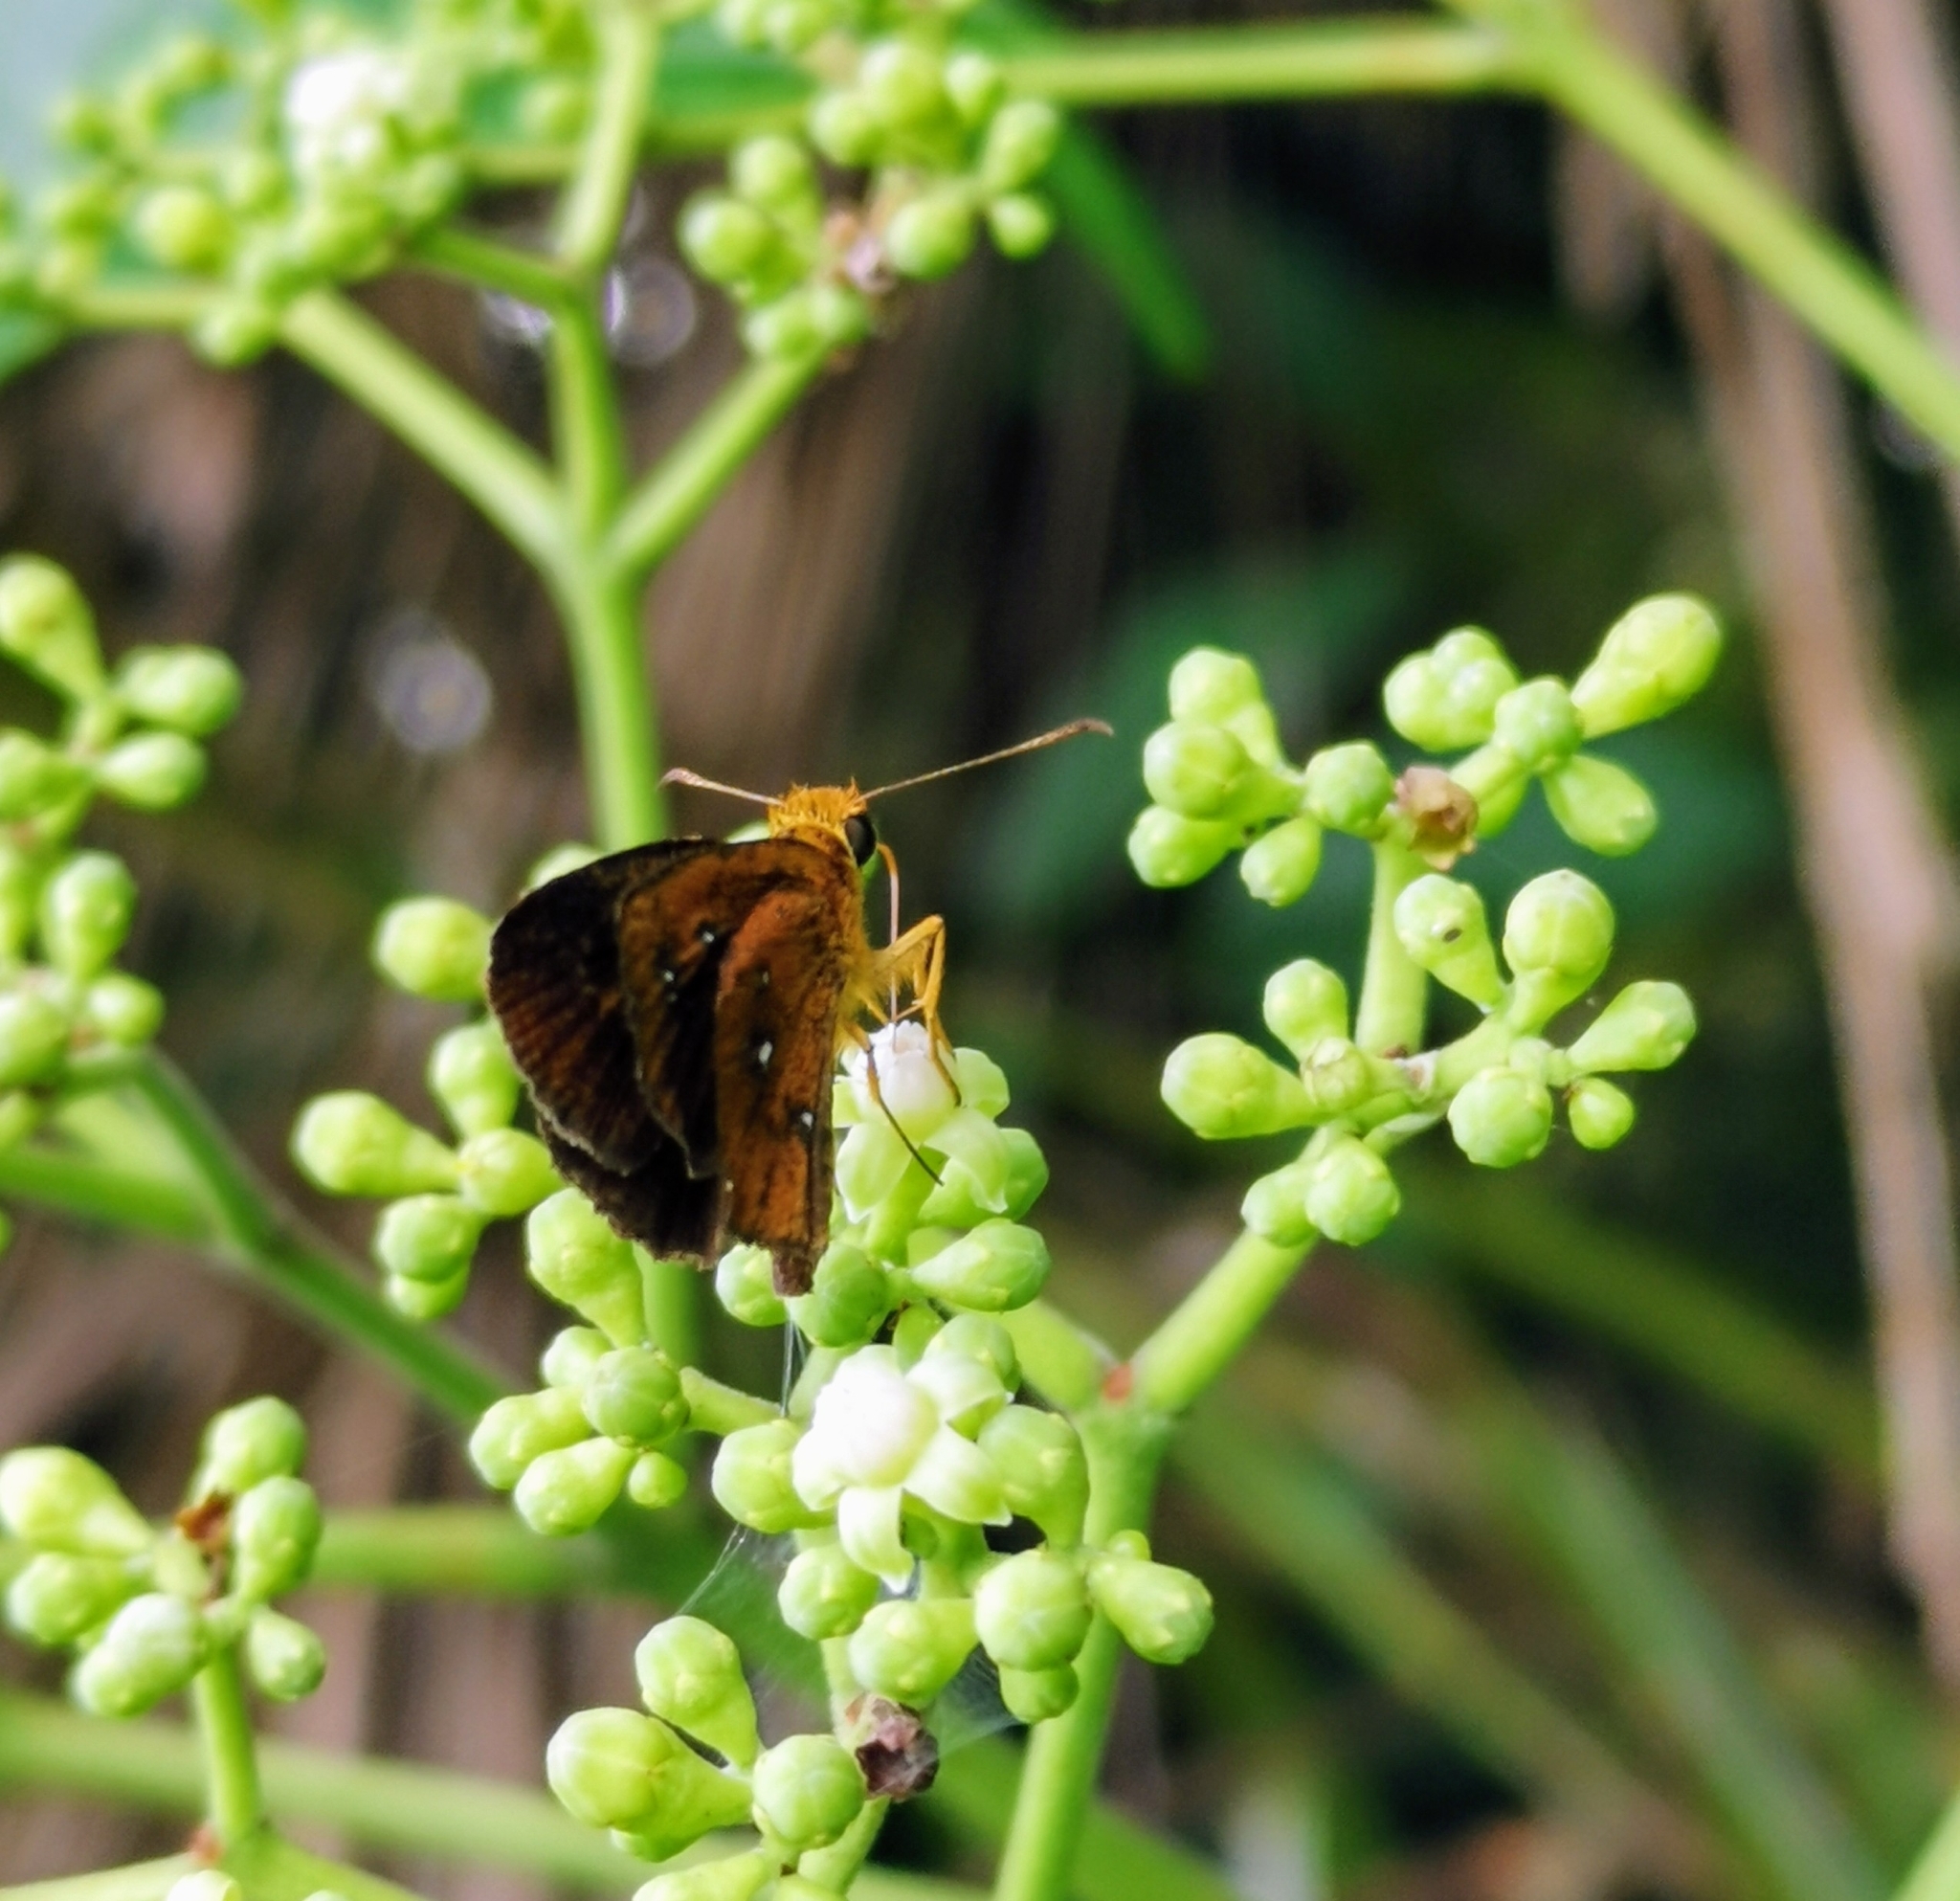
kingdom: Animalia
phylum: Arthropoda
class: Insecta
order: Lepidoptera
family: Hesperiidae
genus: Iambrix
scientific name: Iambrix salsala
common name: Chestnut bob
